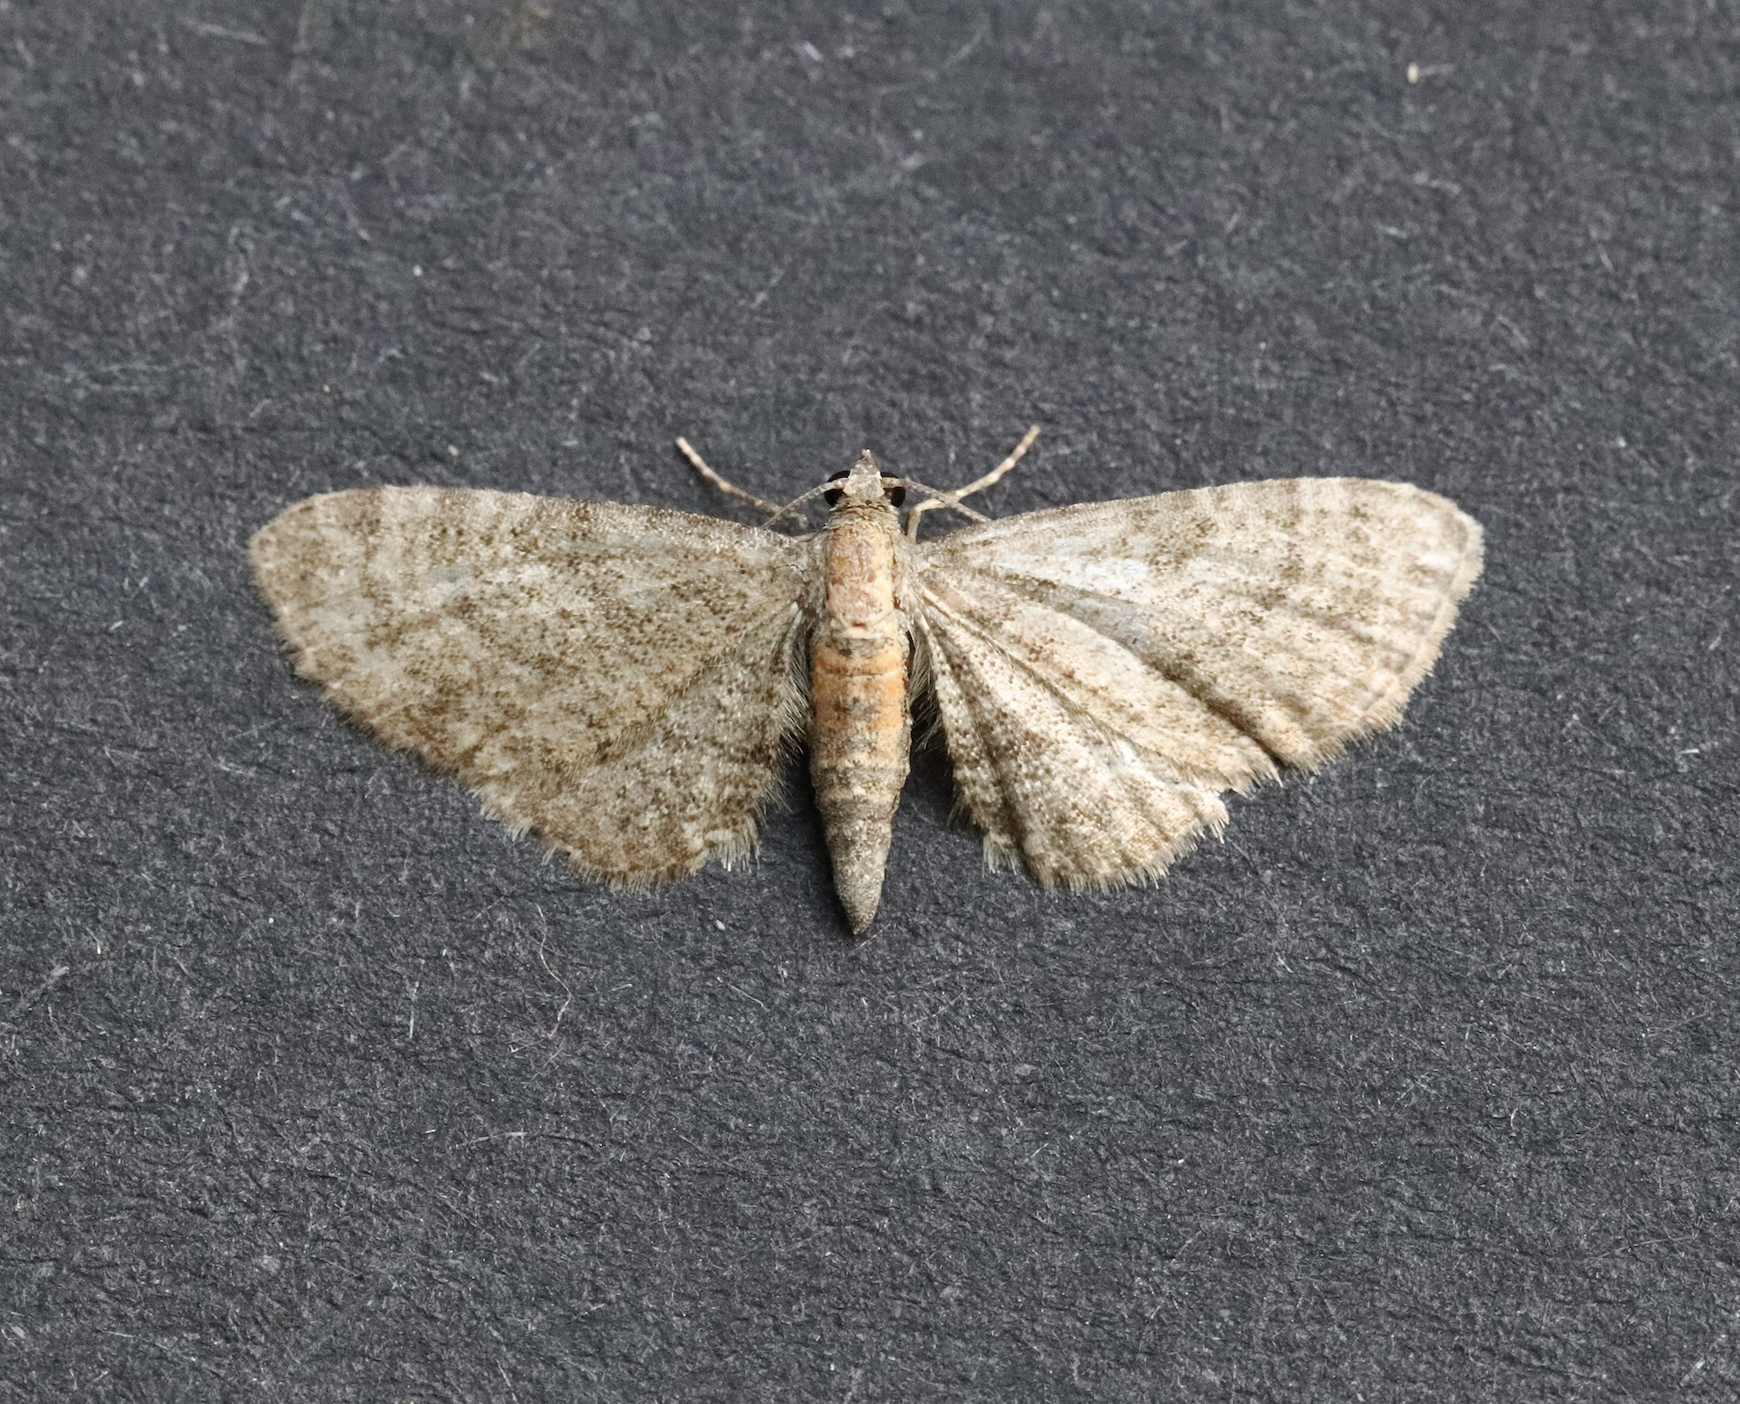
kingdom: Animalia
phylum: Arthropoda
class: Insecta
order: Lepidoptera
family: Geometridae
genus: Eupithecia
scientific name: Eupithecia haworthiata
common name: Haworth's pug
